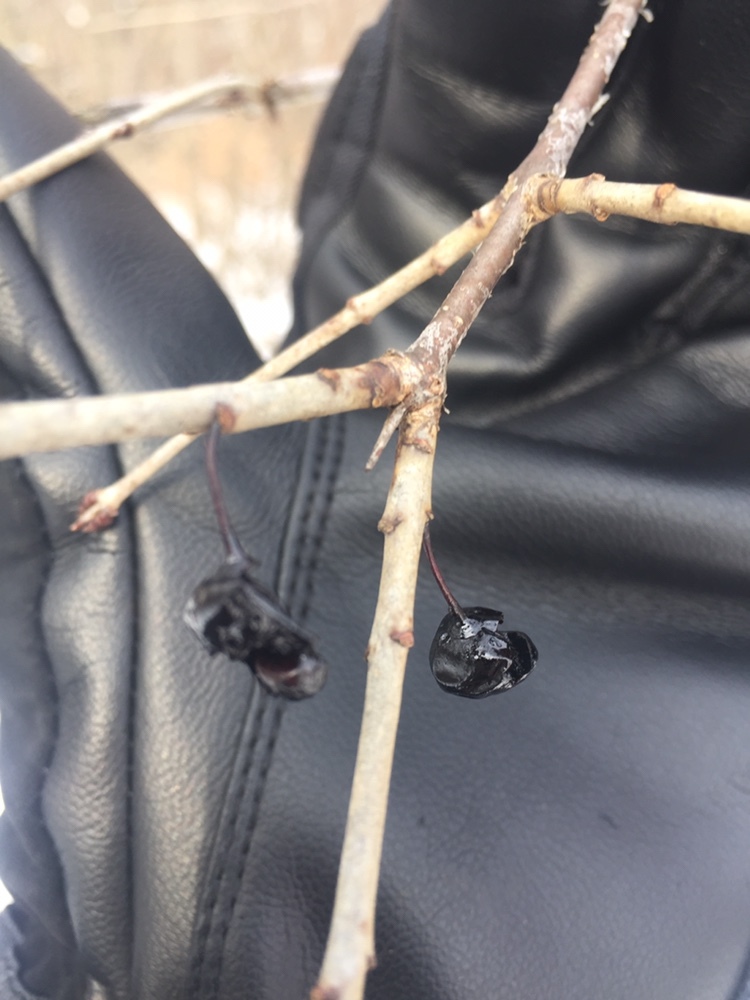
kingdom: Plantae
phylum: Tracheophyta
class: Magnoliopsida
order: Rosales
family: Rhamnaceae
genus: Rhamnus
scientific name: Rhamnus cathartica
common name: Common buckthorn
